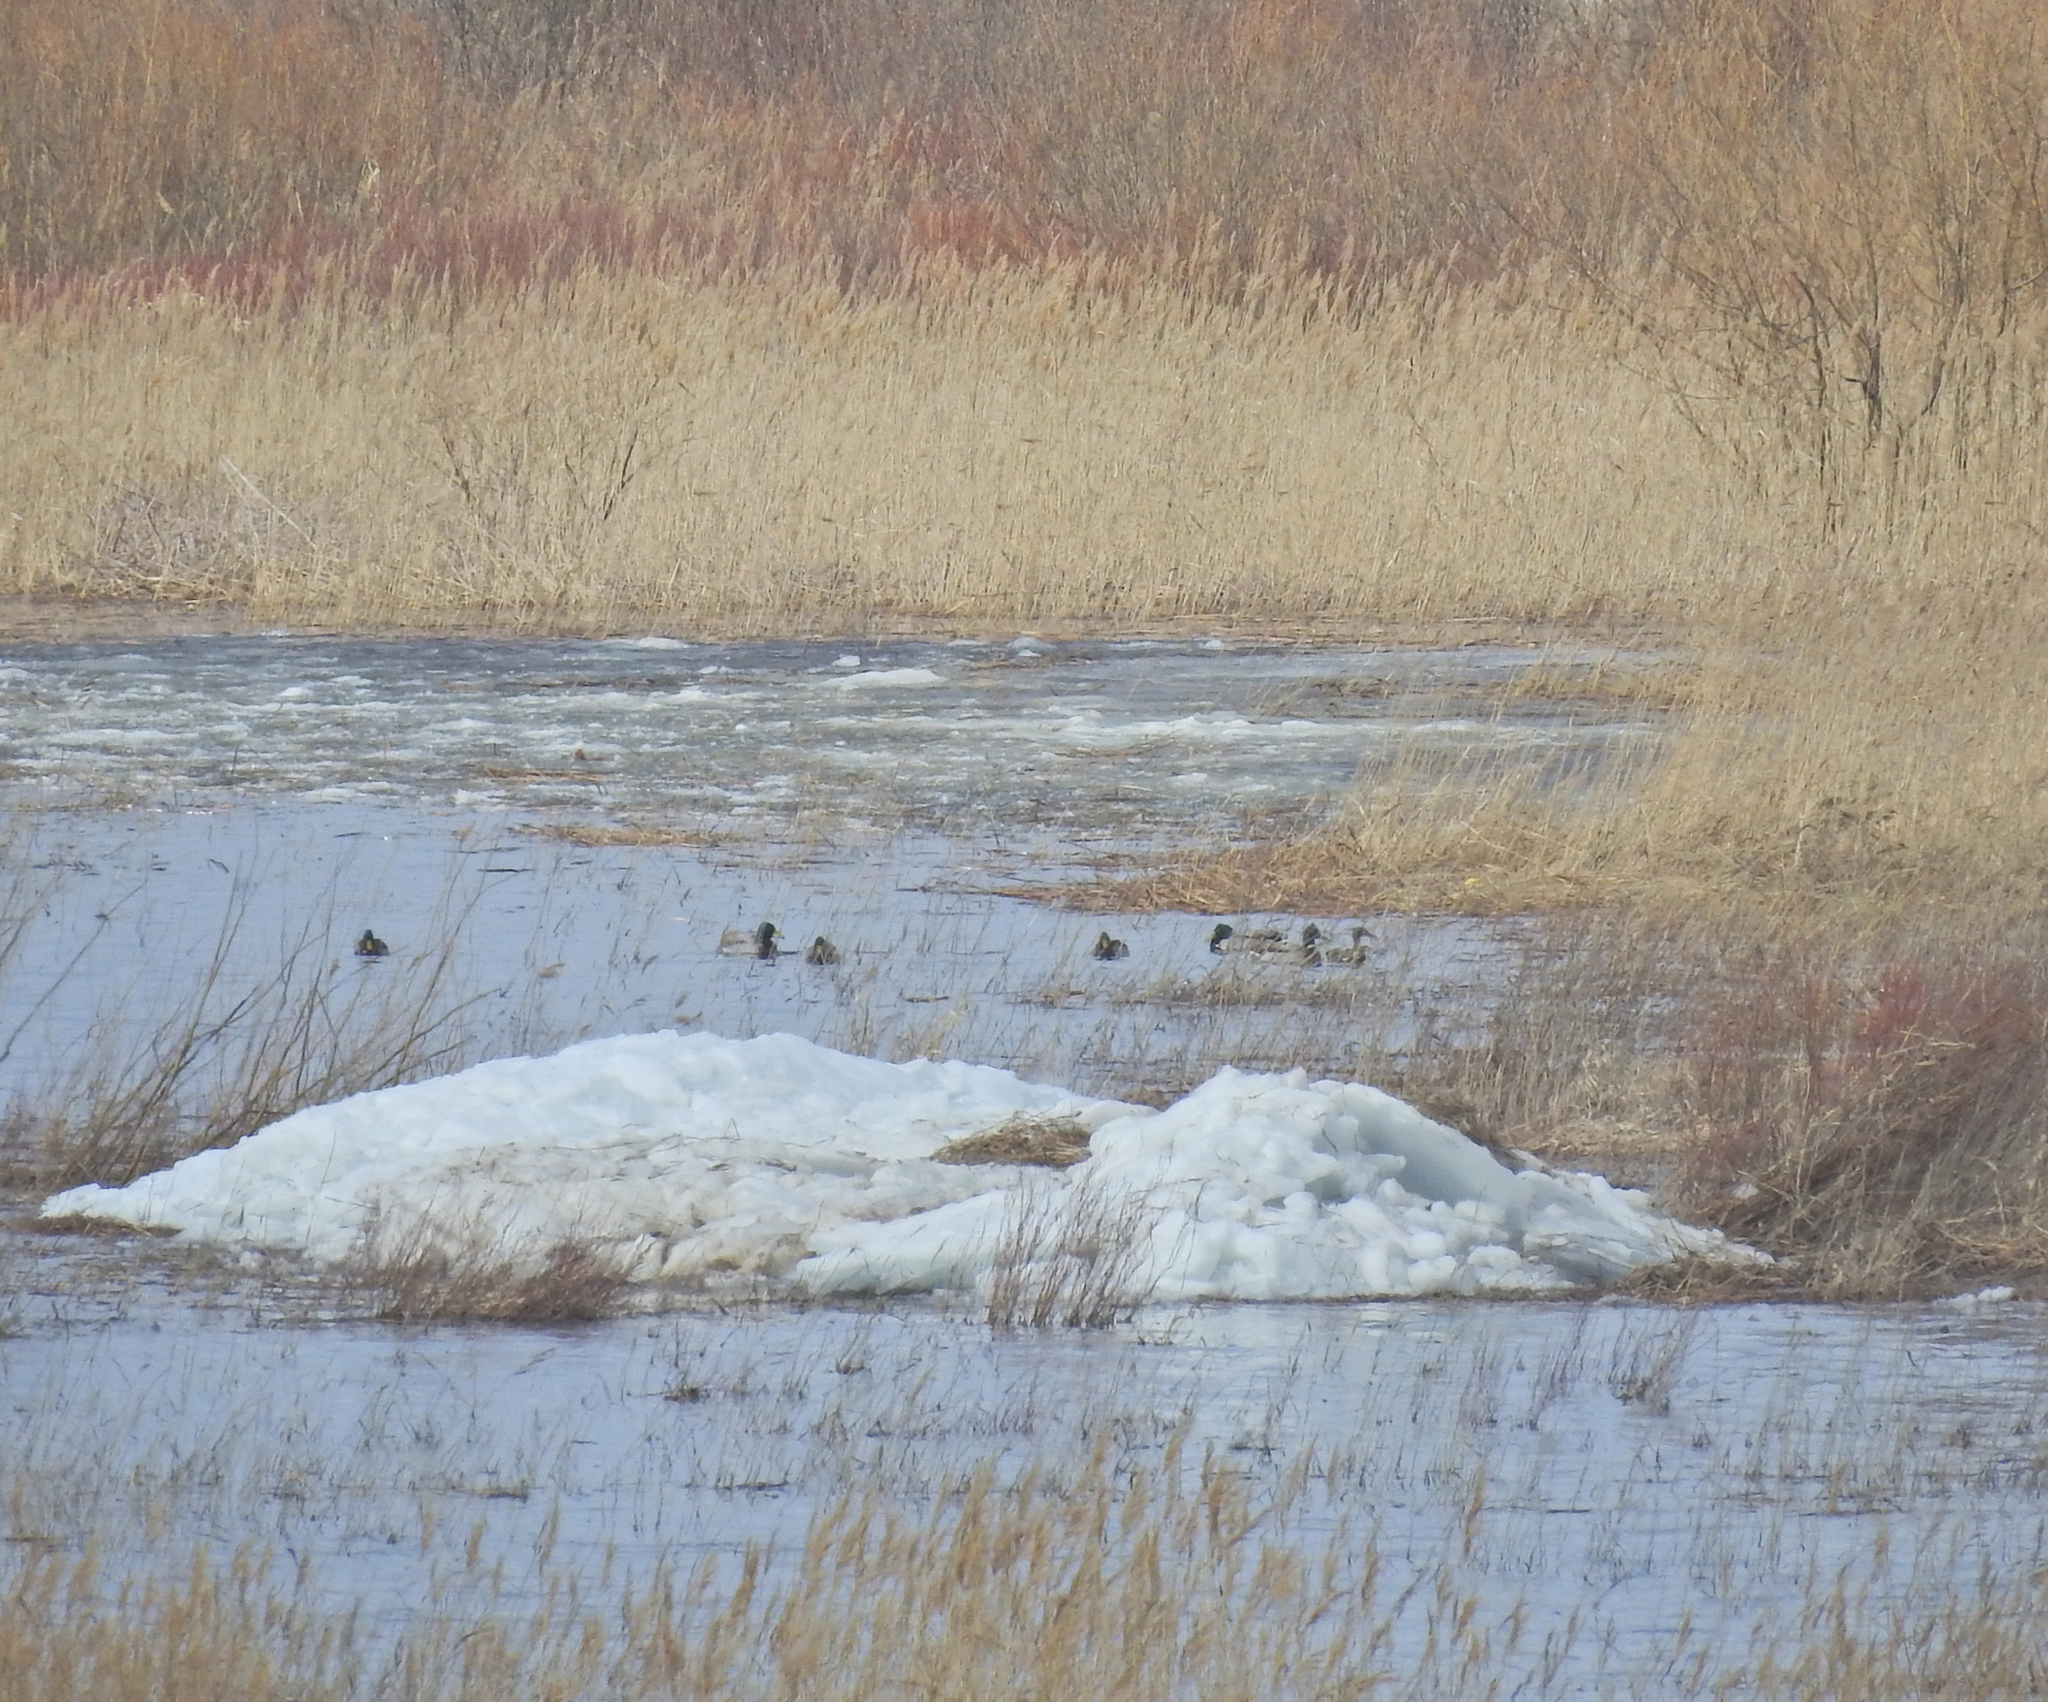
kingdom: Animalia
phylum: Chordata
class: Aves
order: Anseriformes
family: Anatidae
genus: Anas
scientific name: Anas platyrhynchos
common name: Mallard
